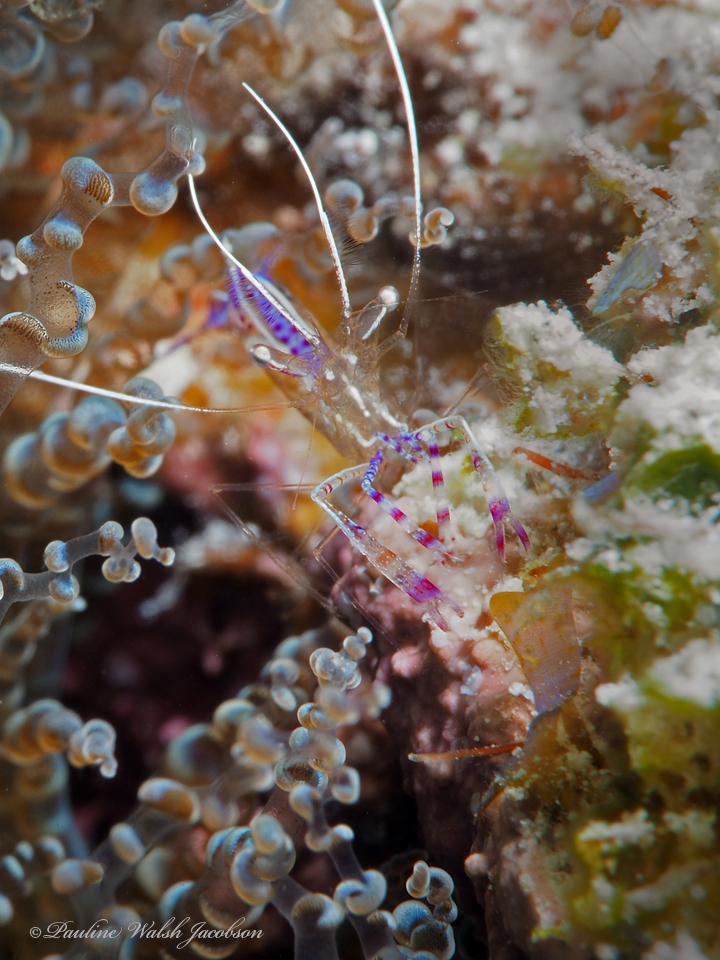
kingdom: Animalia
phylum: Arthropoda
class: Malacostraca
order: Decapoda
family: Palaemonidae
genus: Ancylomenes
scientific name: Ancylomenes pedersoni
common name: Pederson's cleaning shrimp
